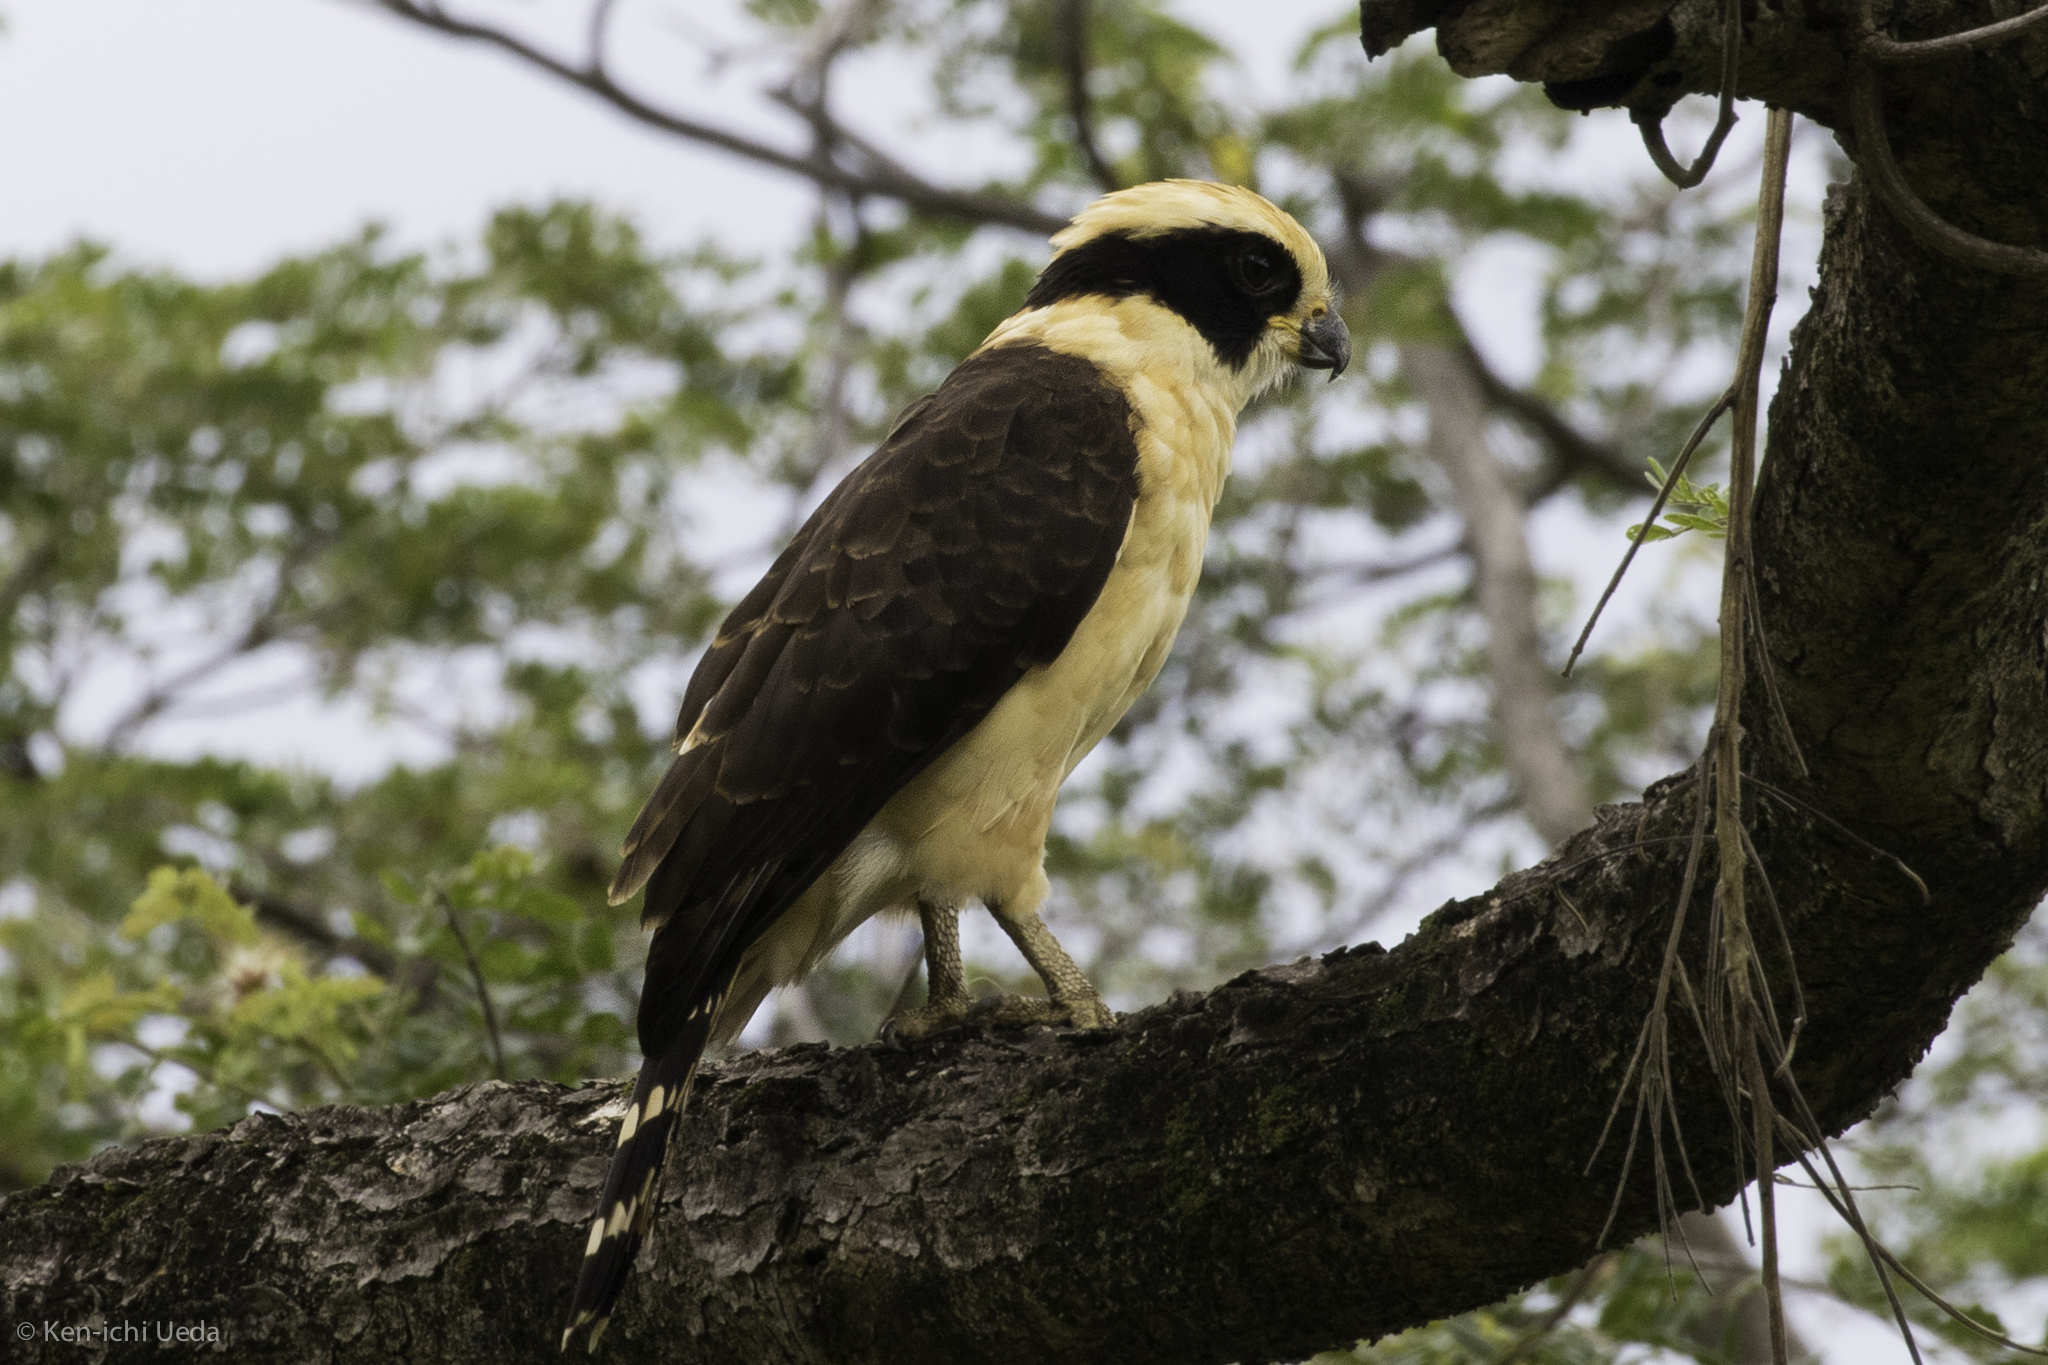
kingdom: Animalia
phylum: Chordata
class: Aves
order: Falconiformes
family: Falconidae
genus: Herpetotheres
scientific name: Herpetotheres cachinnans
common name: Laughing falcon
